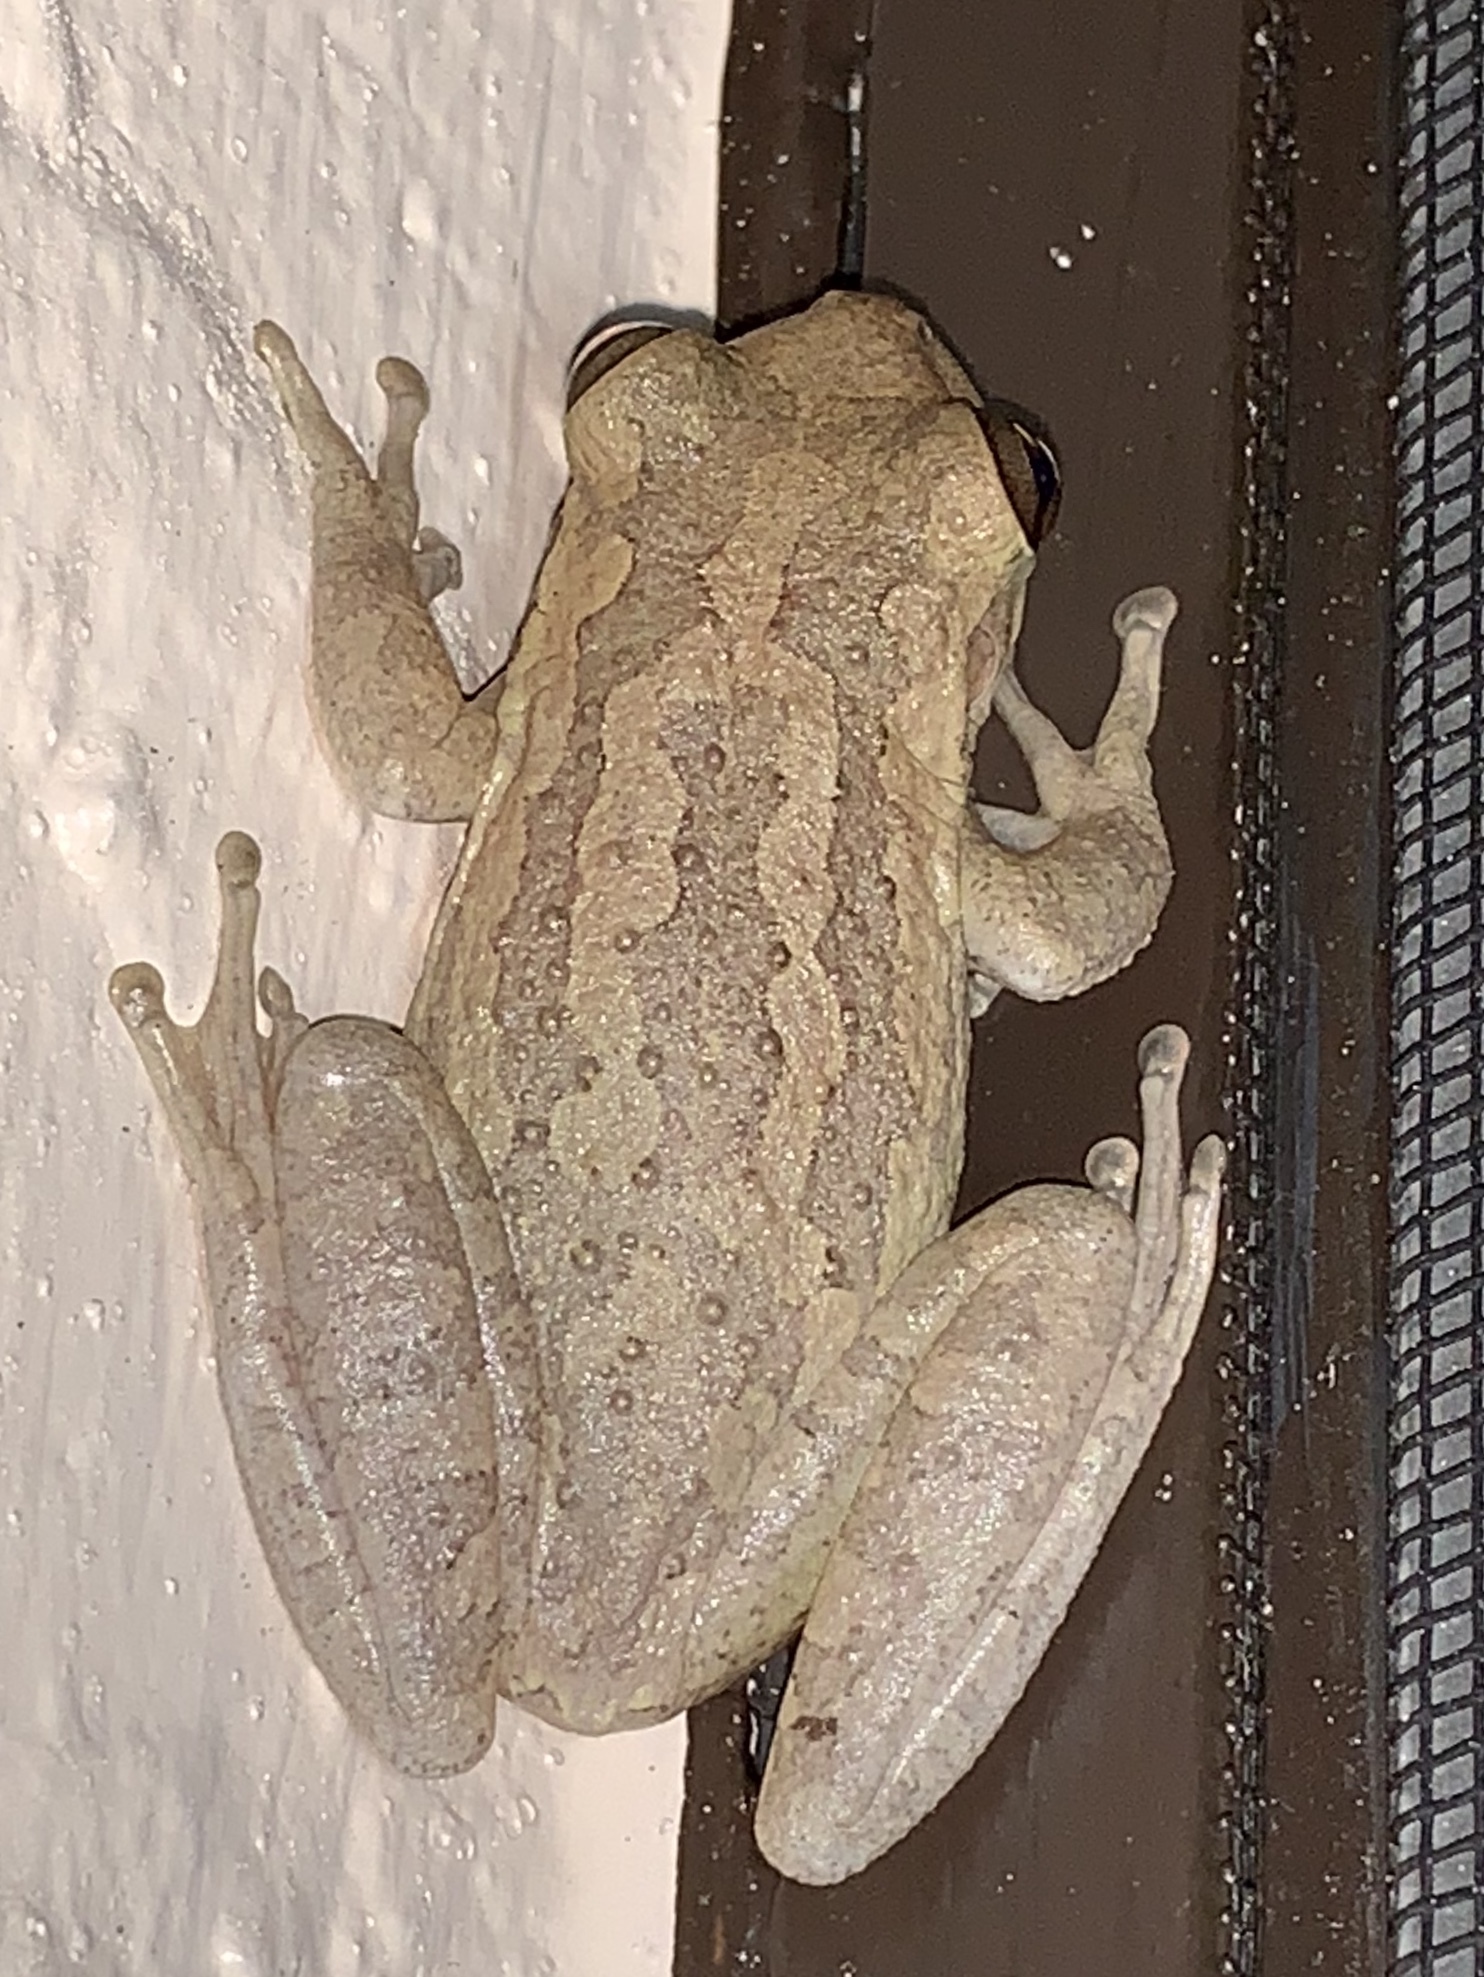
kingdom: Animalia
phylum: Chordata
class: Amphibia
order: Anura
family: Hylidae
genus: Osteopilus
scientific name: Osteopilus septentrionalis
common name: Cuban treefrog
